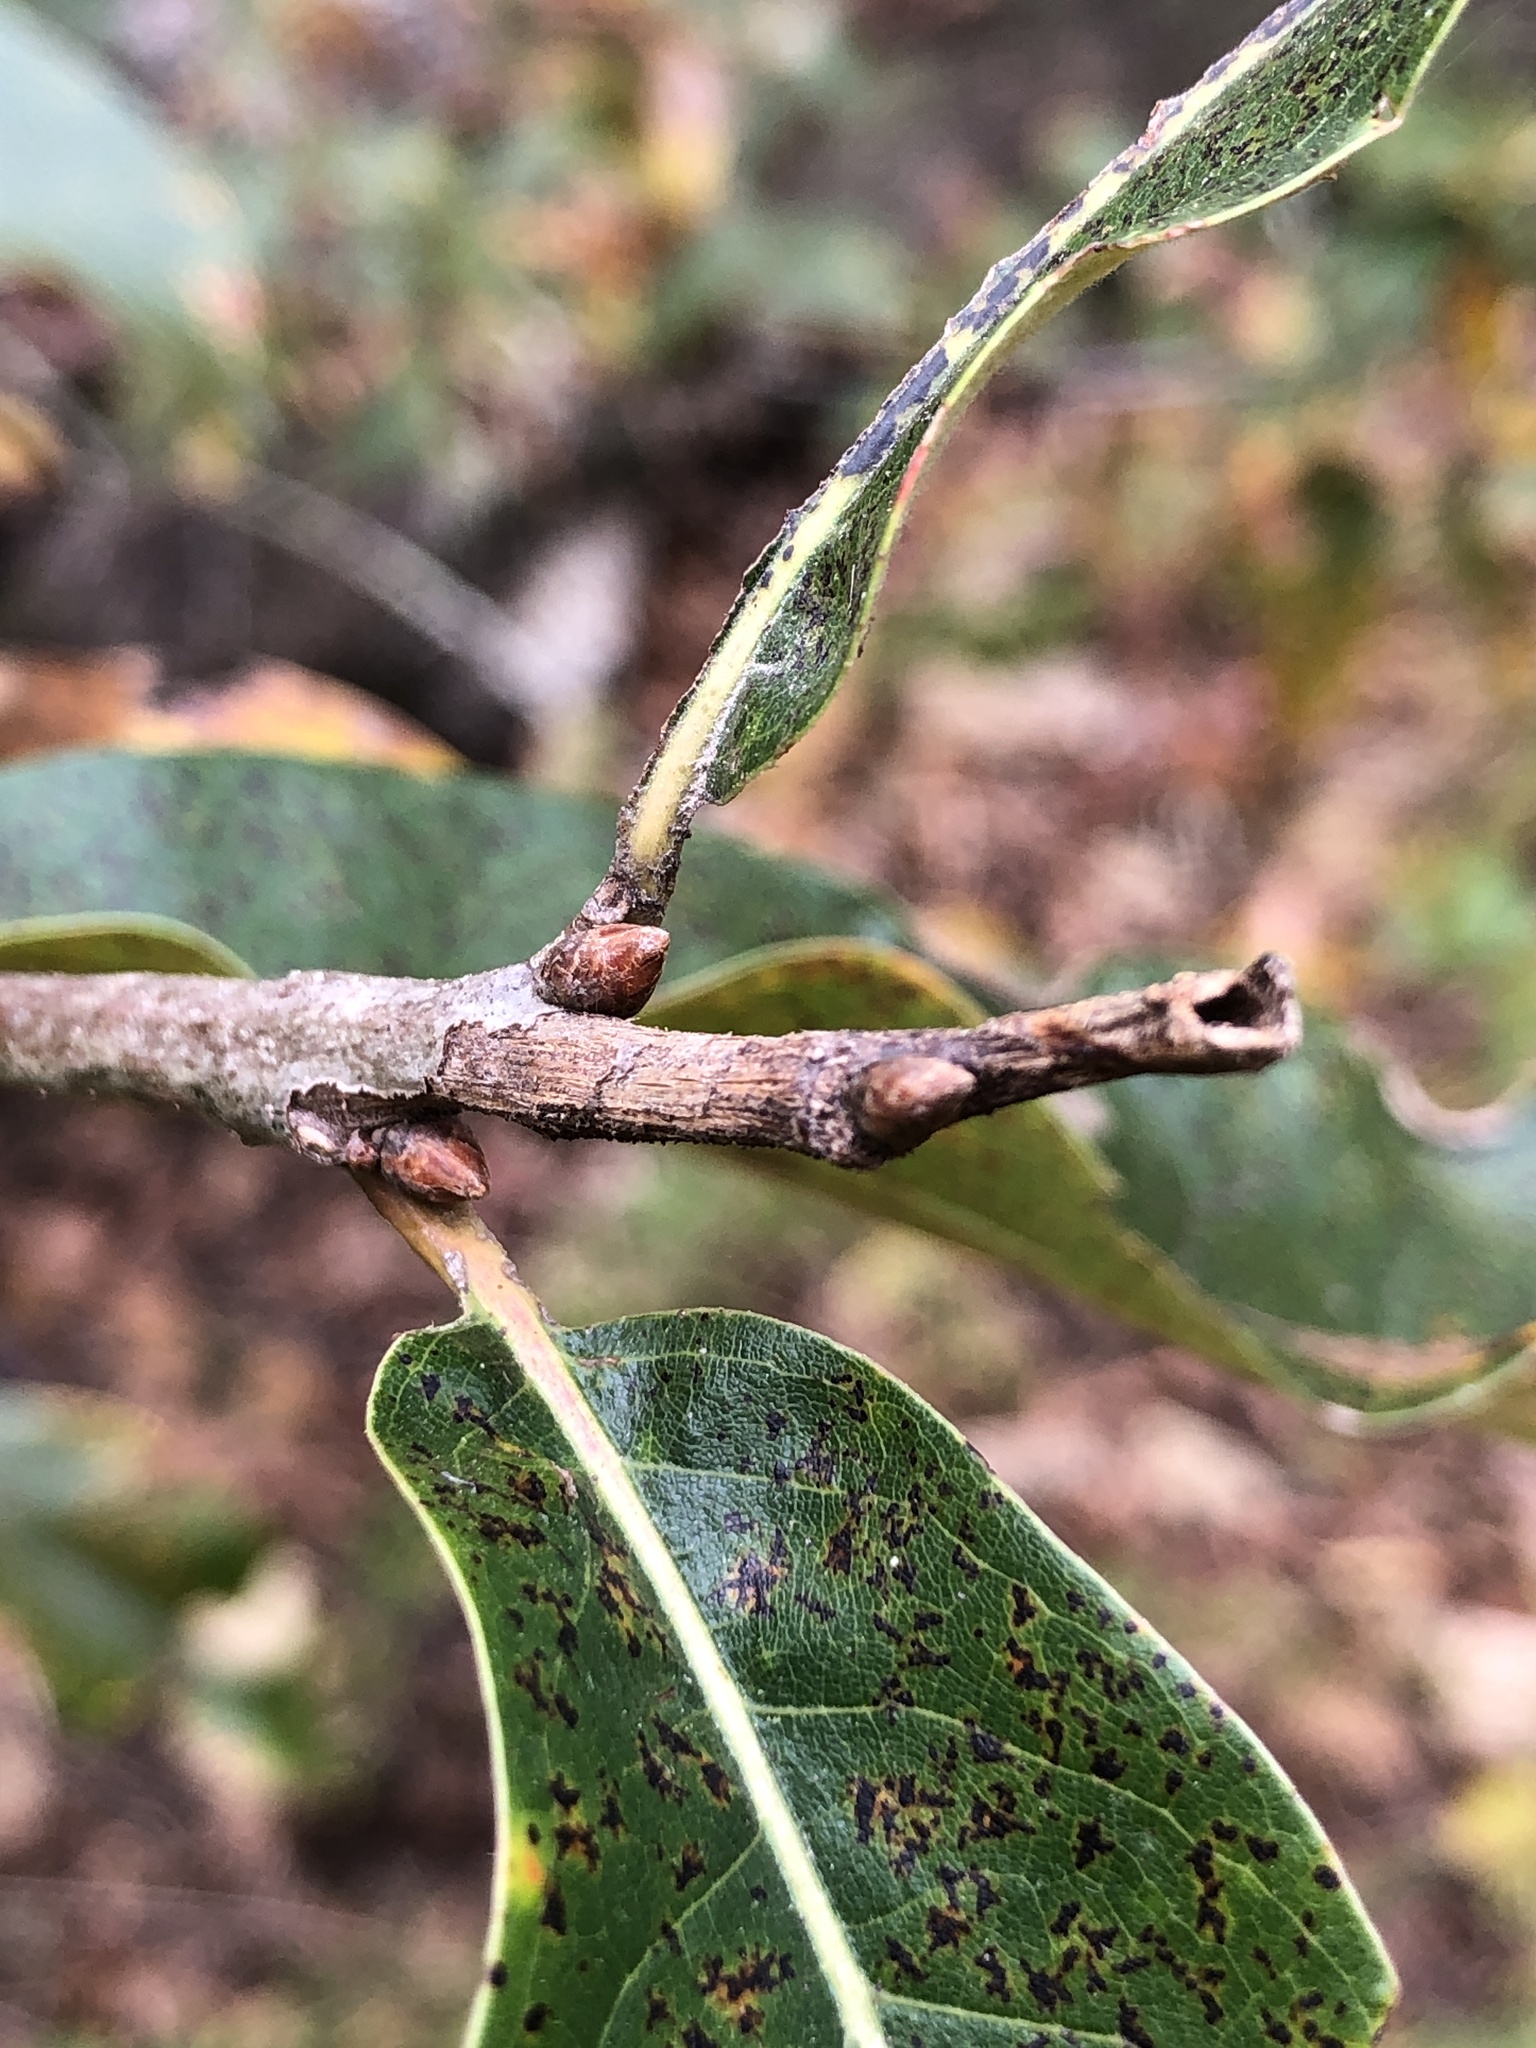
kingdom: Plantae
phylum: Tracheophyta
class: Magnoliopsida
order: Fagales
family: Fagaceae
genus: Quercus
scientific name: Quercus imbricaria
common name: Shingle oak
